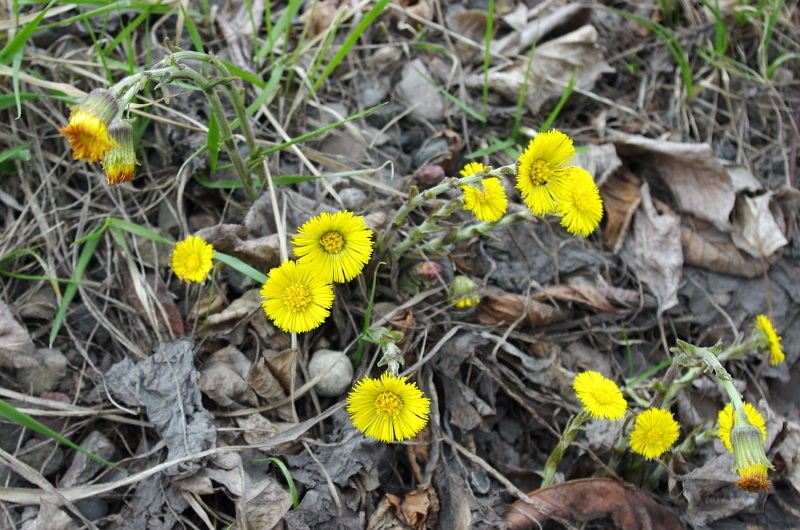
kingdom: Plantae
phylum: Tracheophyta
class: Magnoliopsida
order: Asterales
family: Asteraceae
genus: Tussilago
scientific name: Tussilago farfara
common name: Coltsfoot
